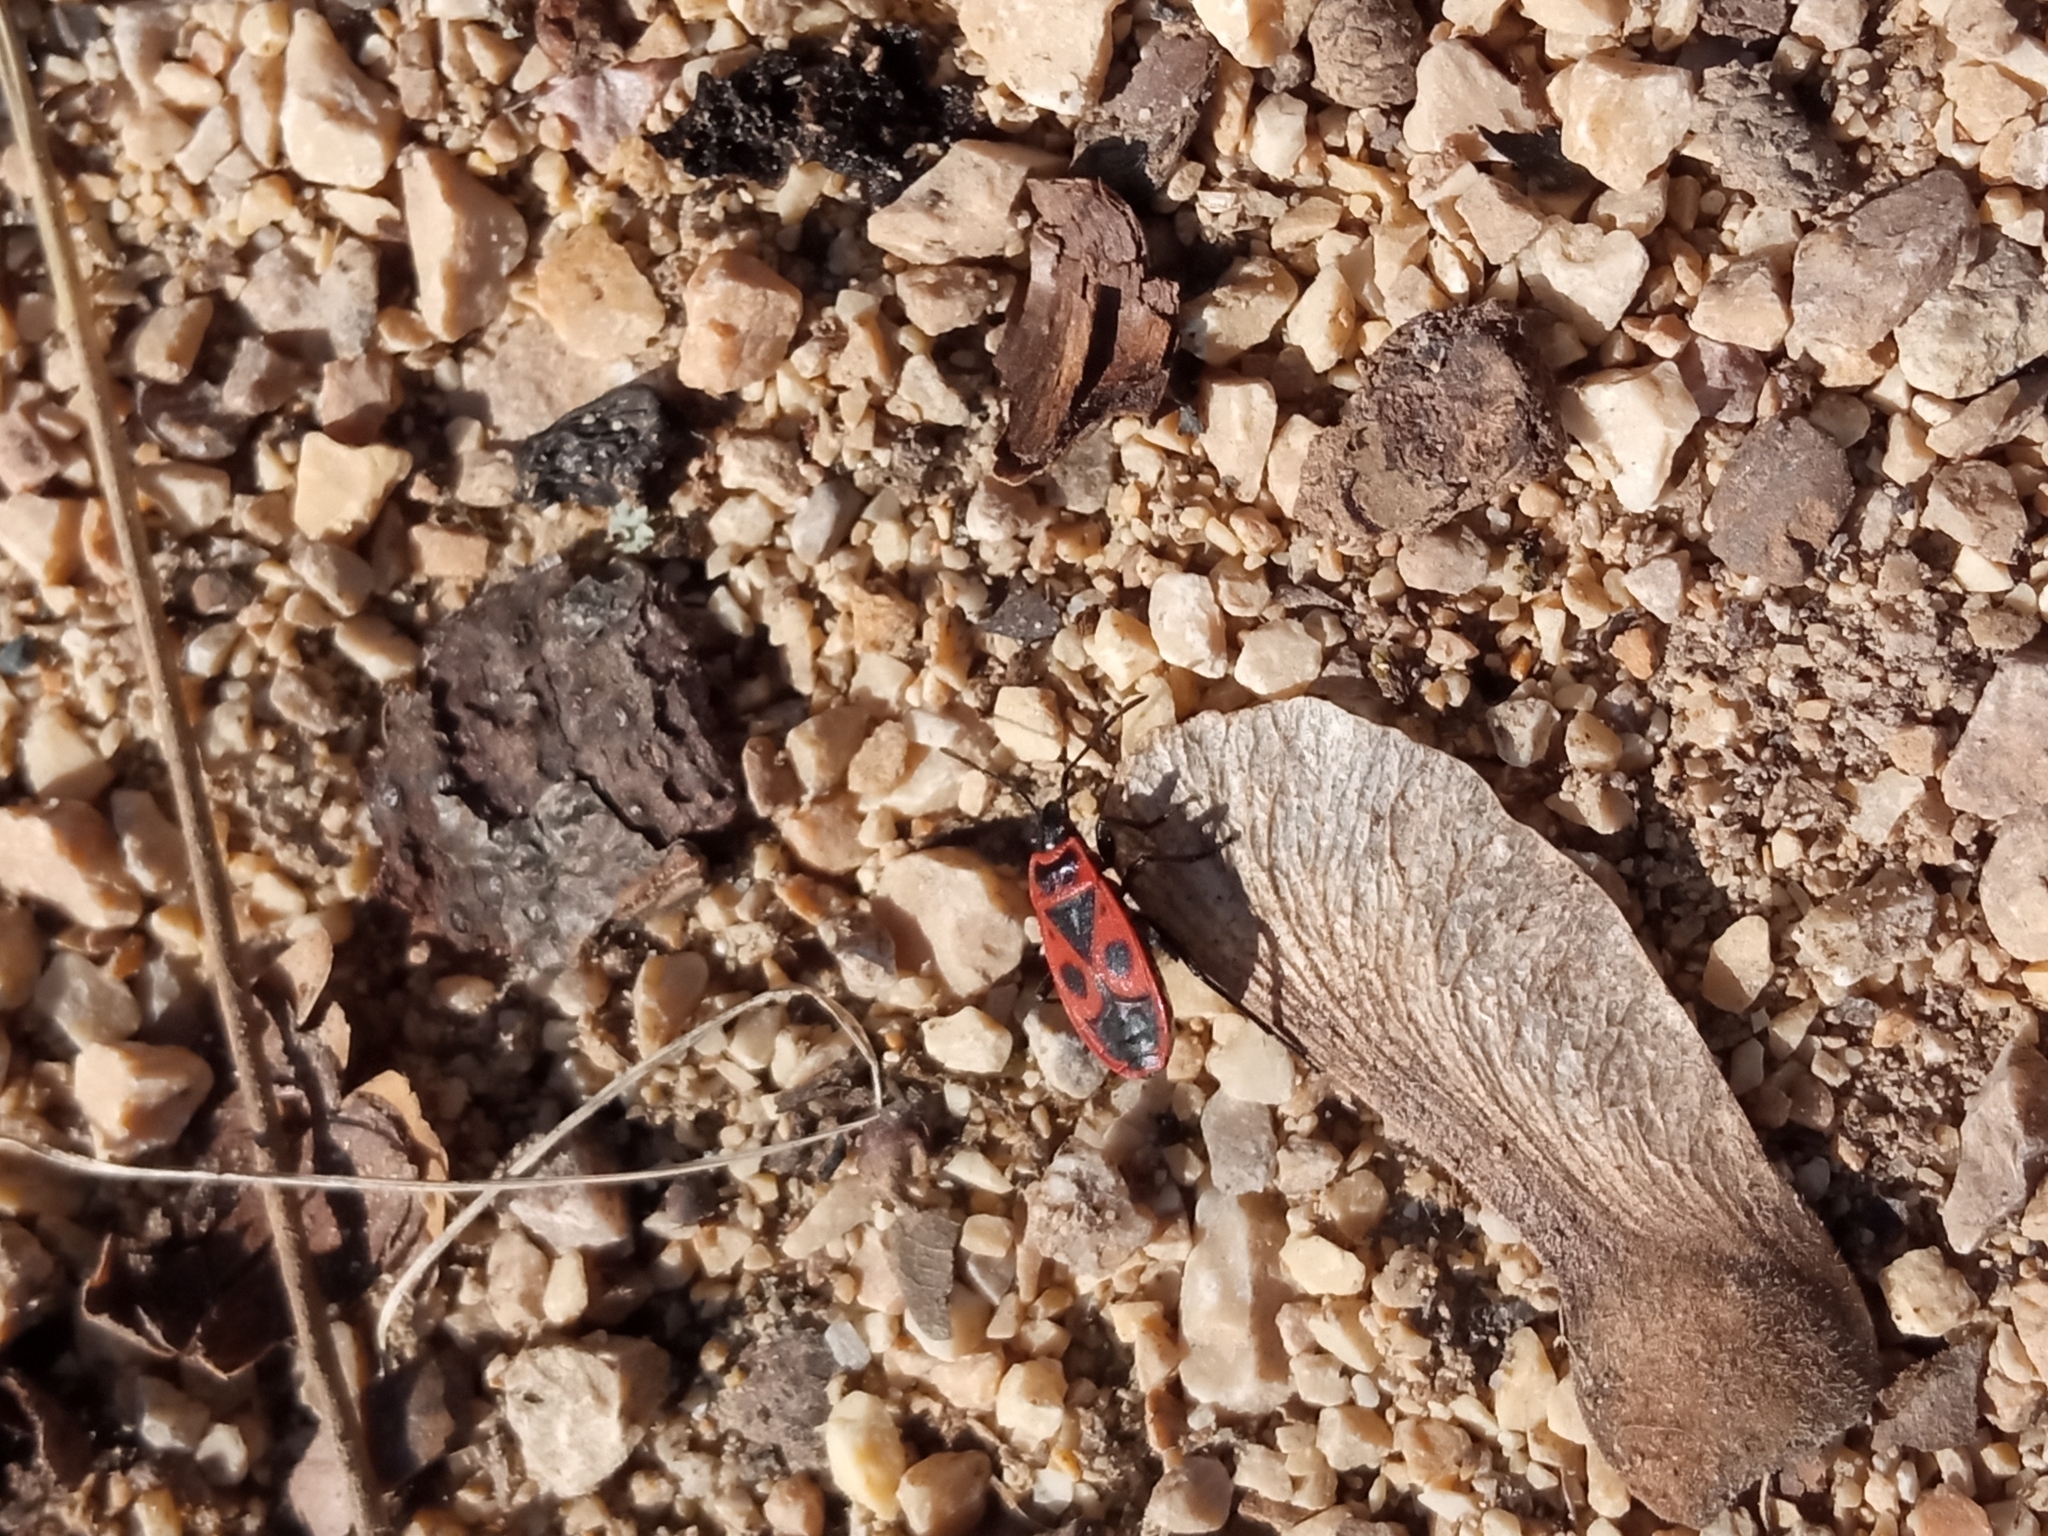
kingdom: Animalia
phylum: Arthropoda
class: Insecta
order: Hemiptera
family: Pyrrhocoridae
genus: Pyrrhocoris
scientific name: Pyrrhocoris apterus
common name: Firebug
